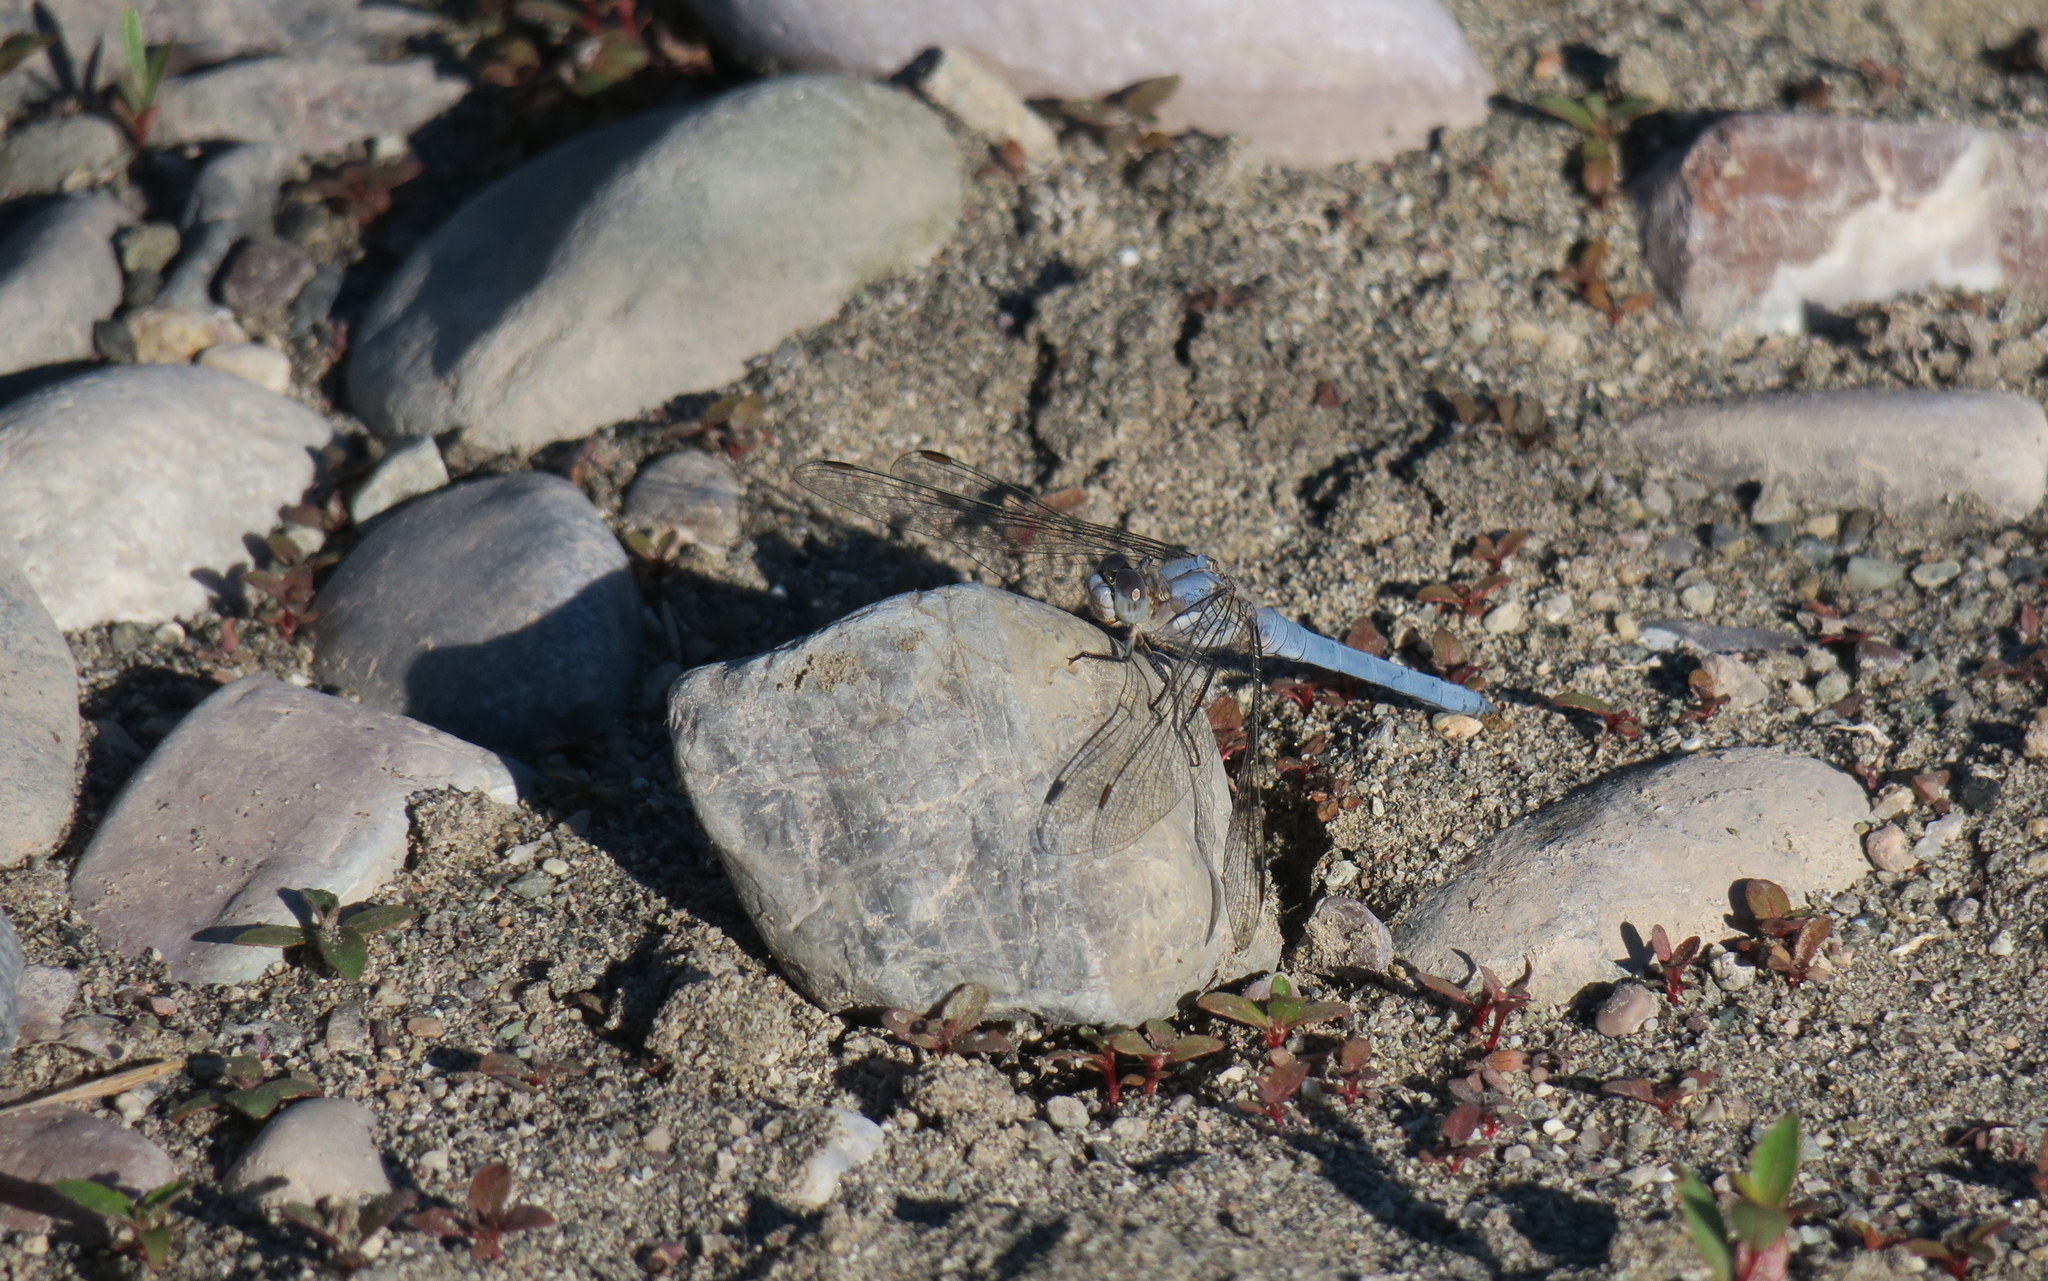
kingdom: Animalia
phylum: Arthropoda
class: Insecta
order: Odonata
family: Libellulidae
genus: Orthetrum
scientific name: Orthetrum brunneum
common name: Southern skimmer
